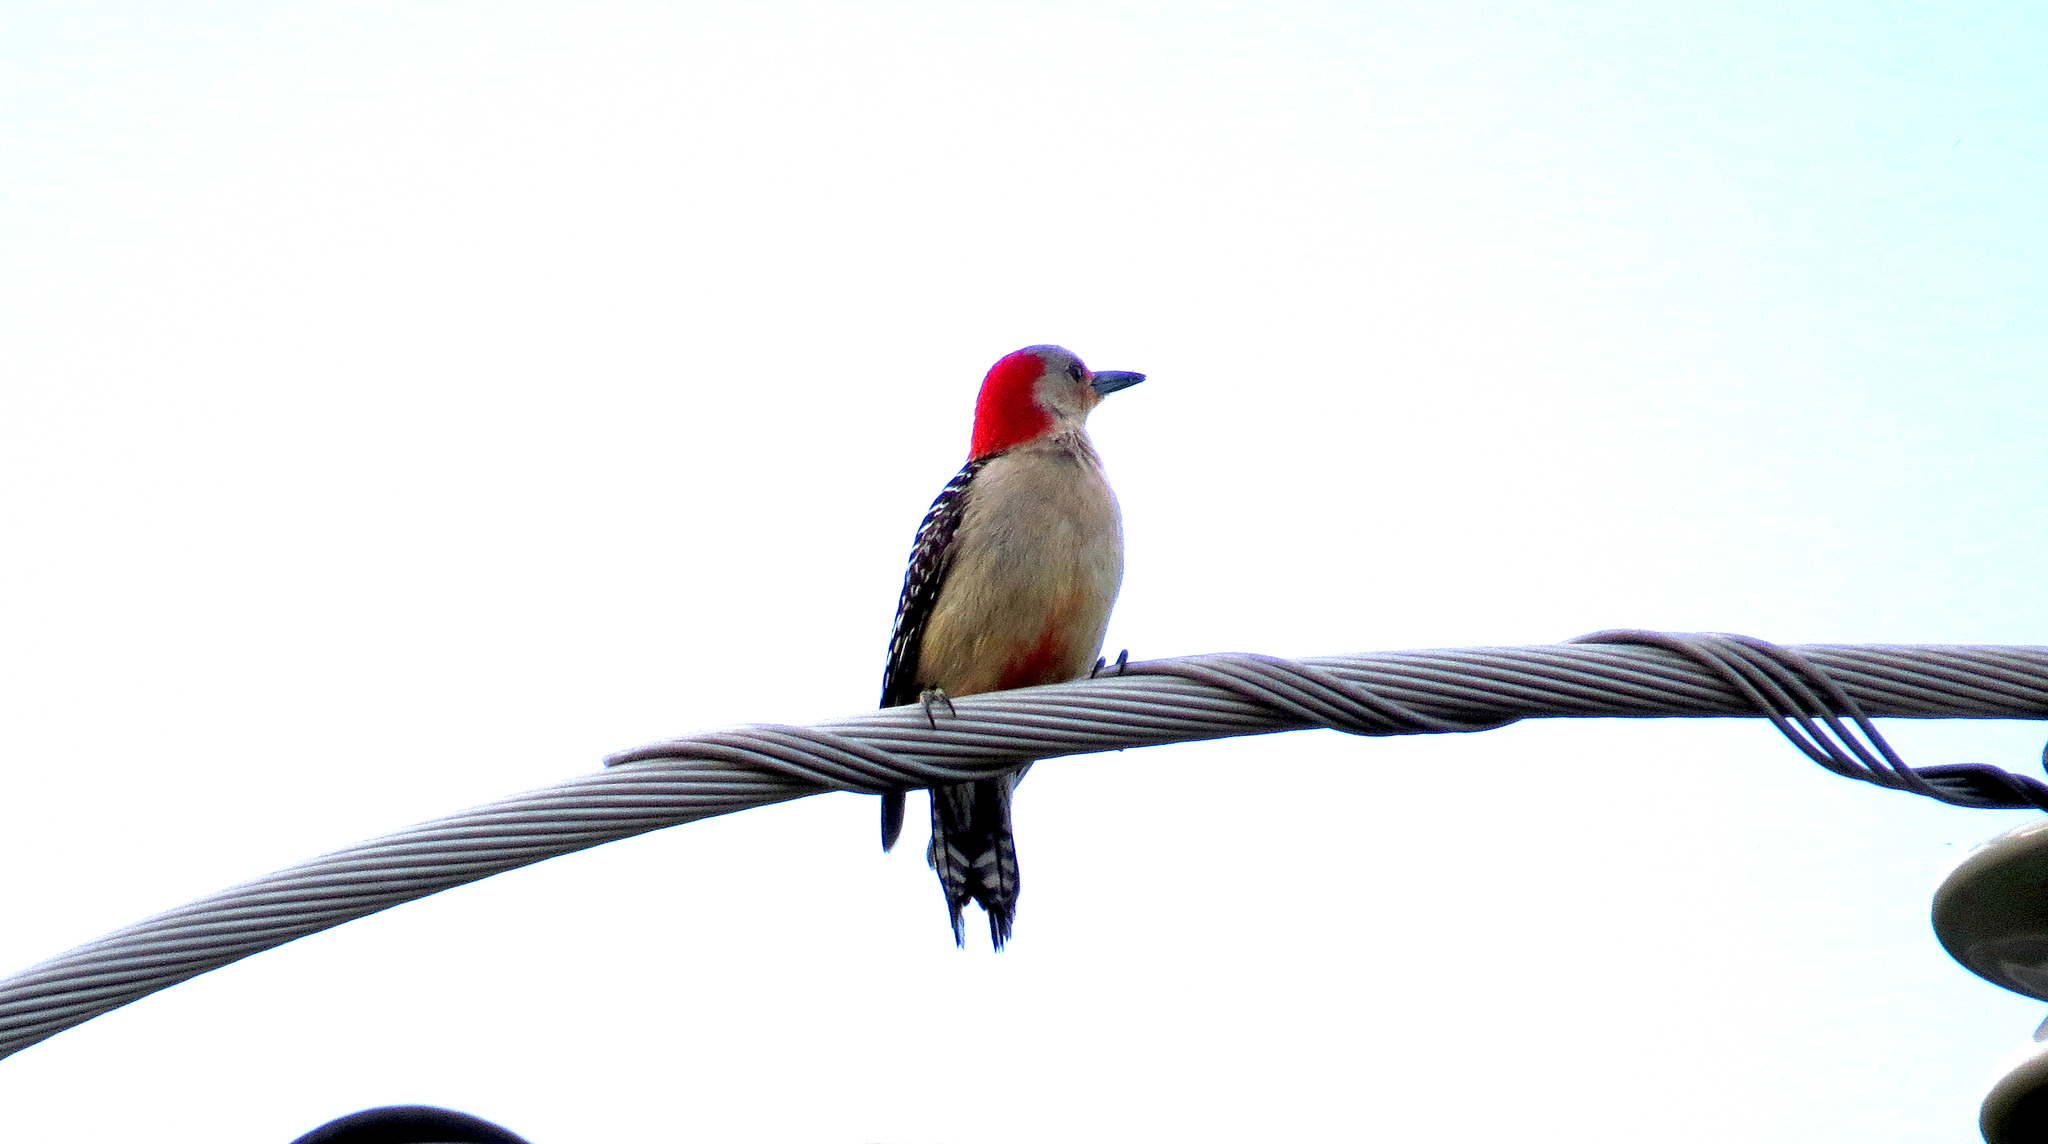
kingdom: Animalia
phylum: Chordata
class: Aves
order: Piciformes
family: Picidae
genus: Melanerpes
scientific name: Melanerpes carolinus
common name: Red-bellied woodpecker
